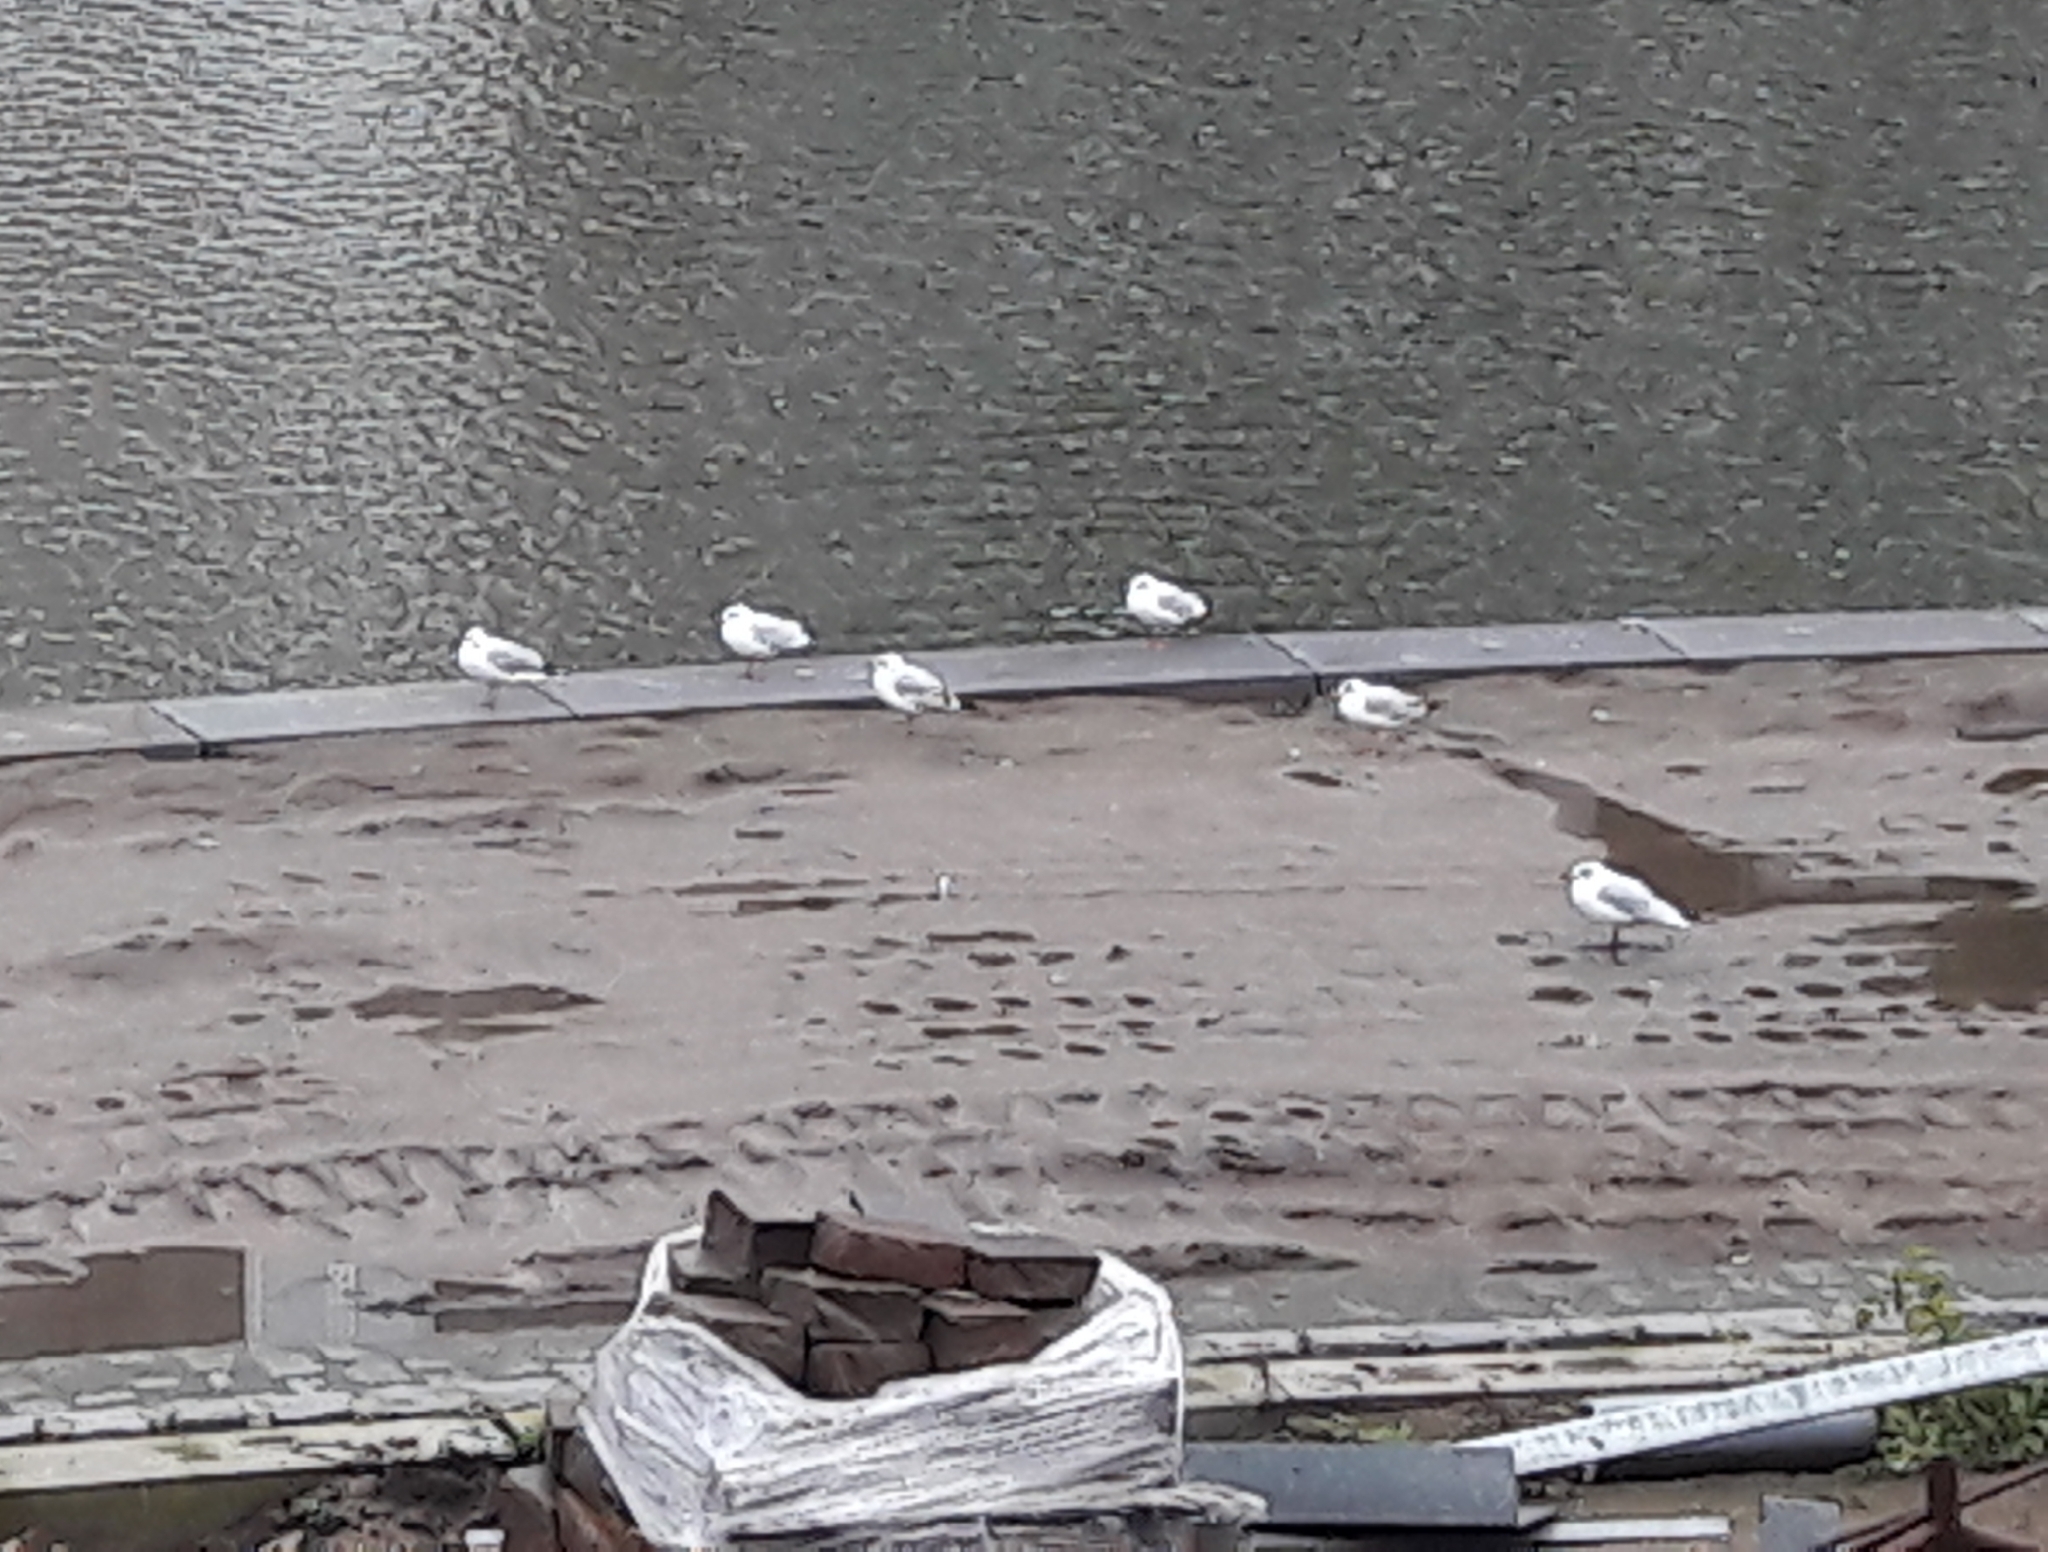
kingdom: Animalia
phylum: Chordata
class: Aves
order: Charadriiformes
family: Laridae
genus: Chroicocephalus
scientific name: Chroicocephalus ridibundus
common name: Black-headed gull
